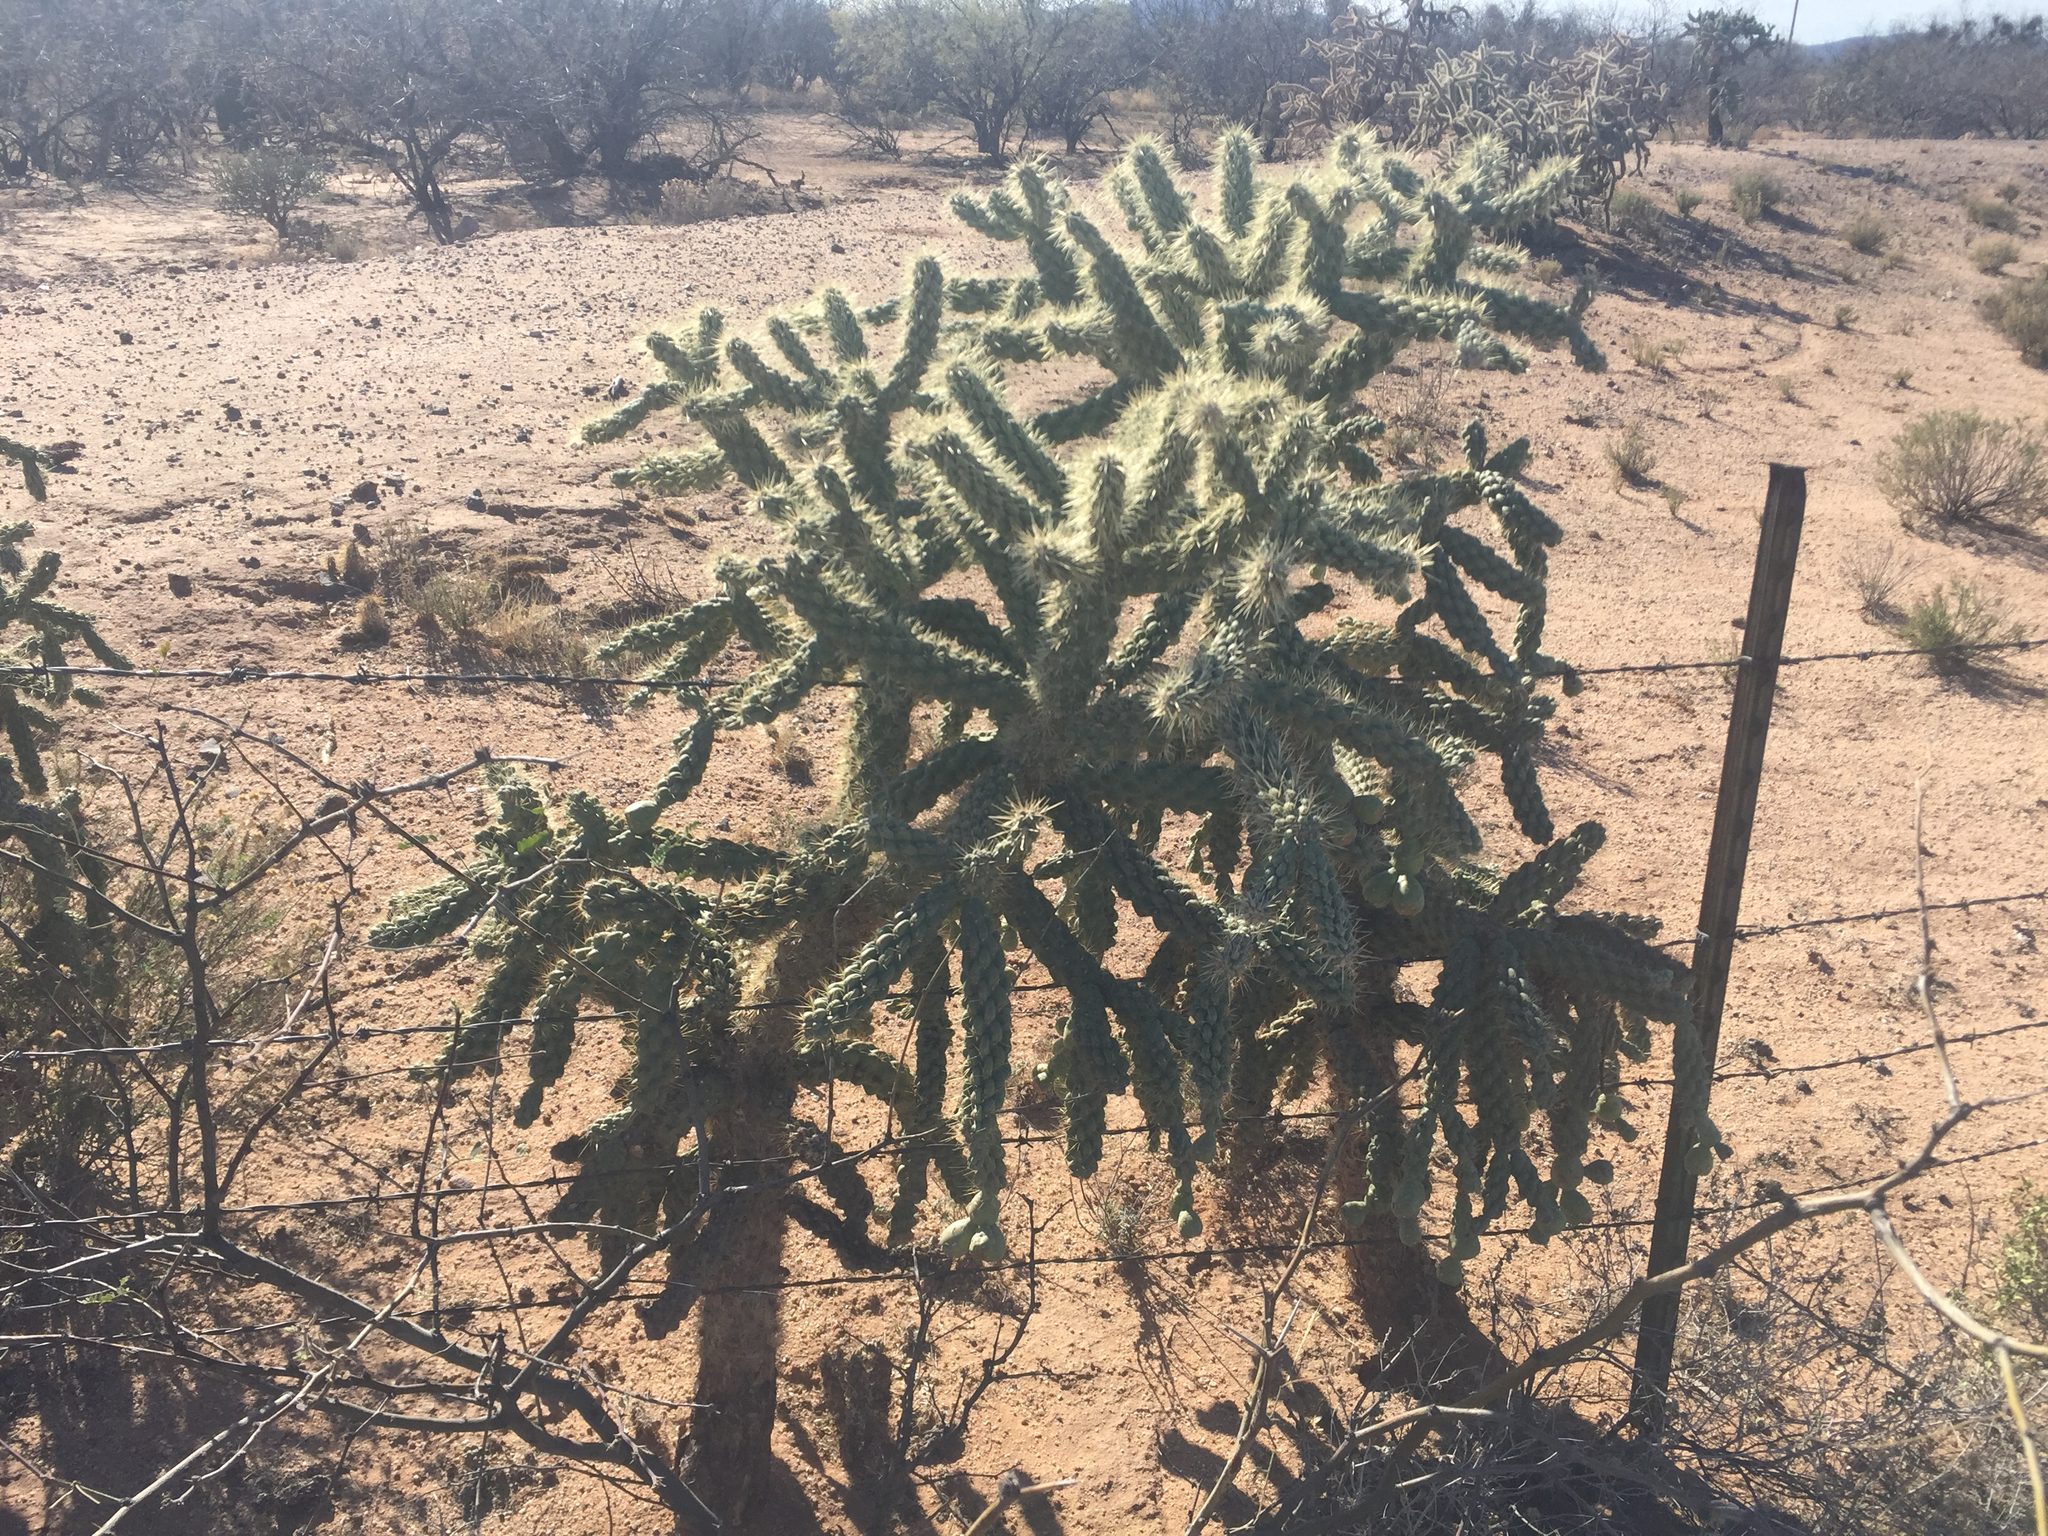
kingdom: Plantae
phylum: Tracheophyta
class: Magnoliopsida
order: Caryophyllales
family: Cactaceae
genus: Cylindropuntia
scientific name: Cylindropuntia fulgida
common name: Jumping cholla
